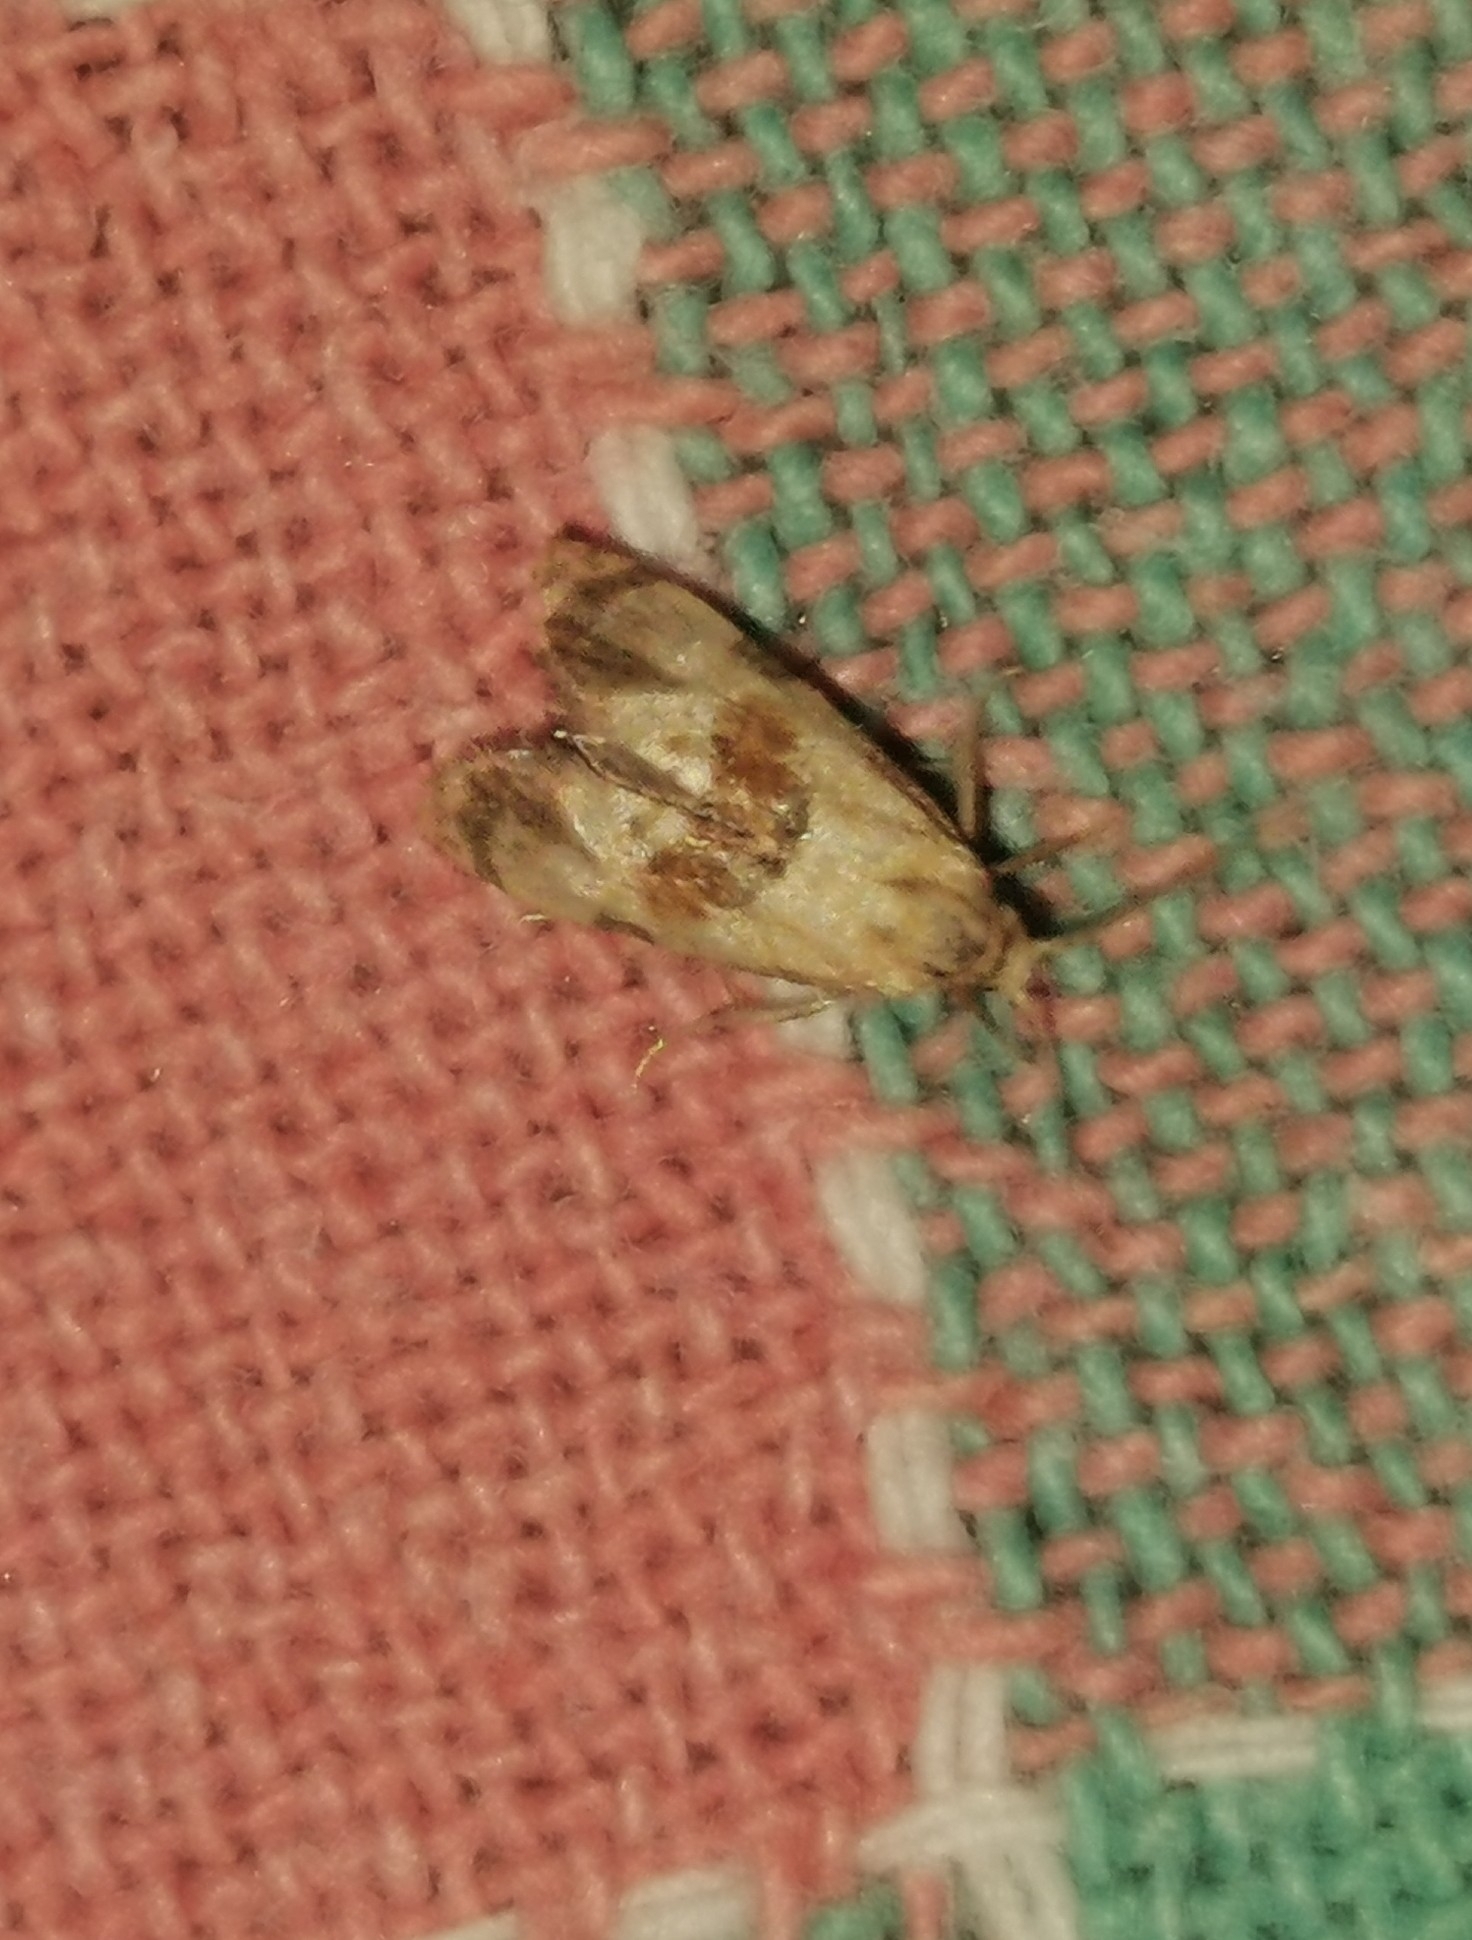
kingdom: Animalia
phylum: Arthropoda
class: Insecta
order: Lepidoptera
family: Tortricidae
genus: Phalonidia
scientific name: Phalonidia contractana
